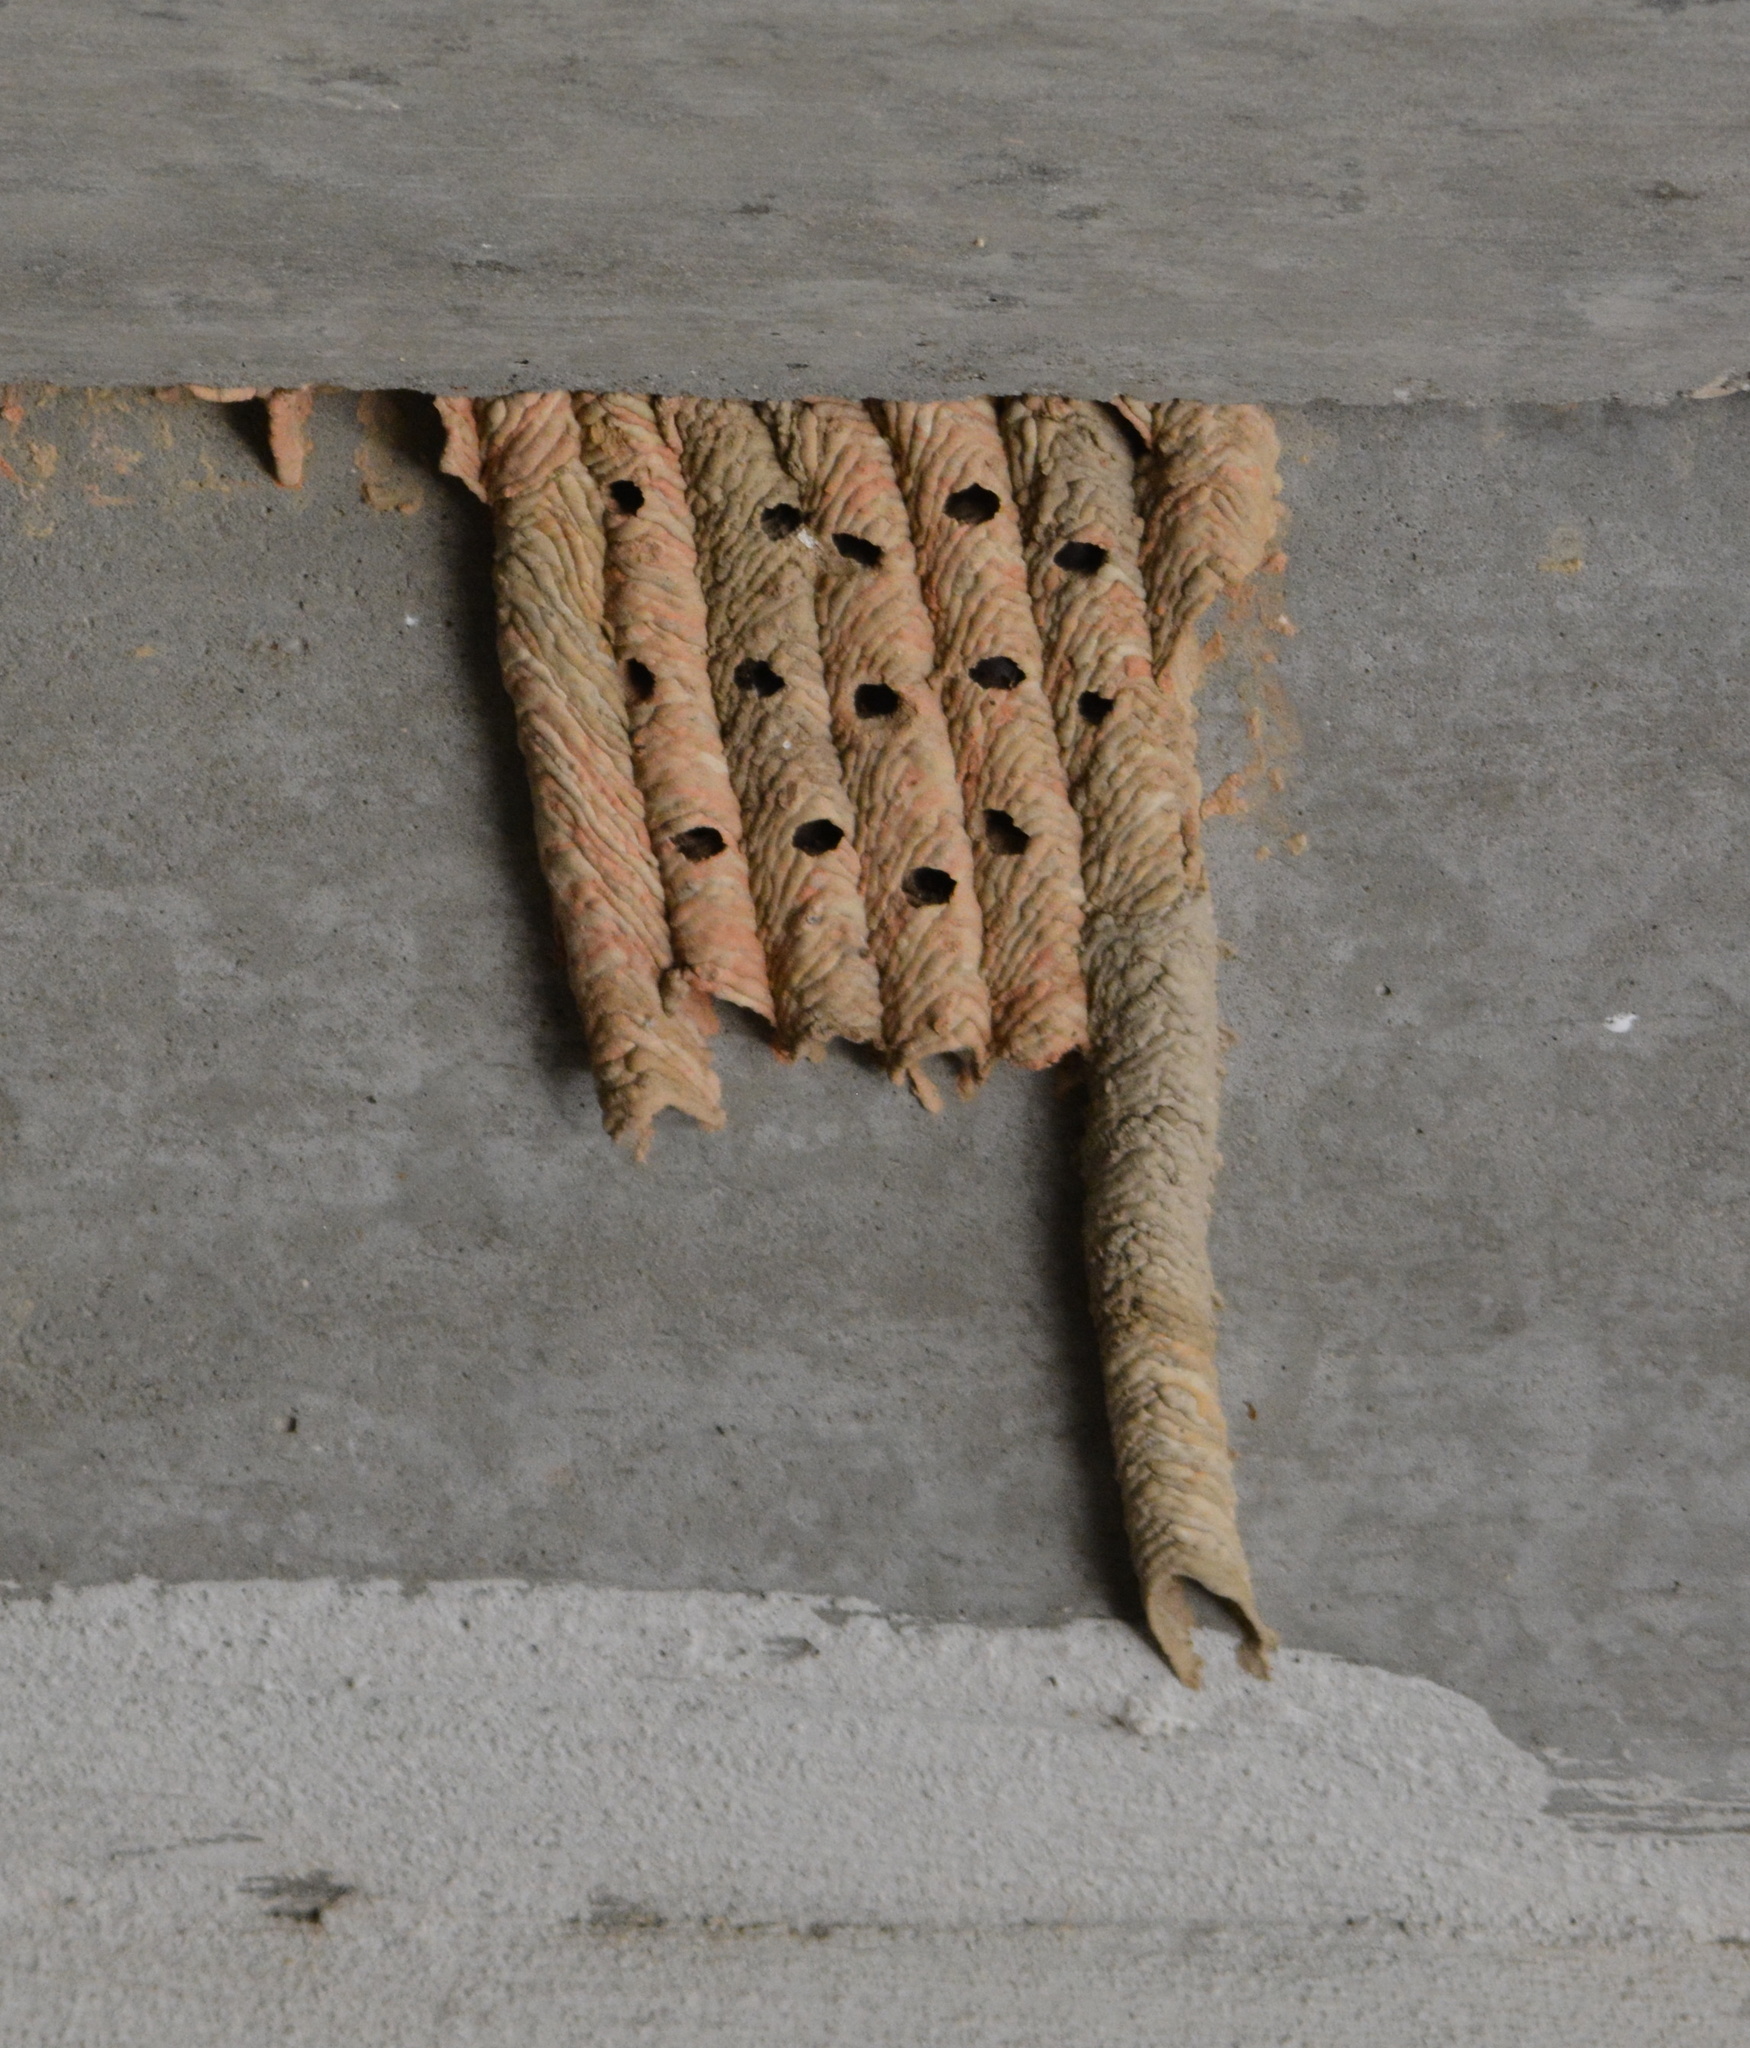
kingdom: Animalia
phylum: Arthropoda
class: Insecta
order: Hymenoptera
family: Crabronidae
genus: Trypoxylon
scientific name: Trypoxylon politum
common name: Organ-pipe mud-dauber wasp
